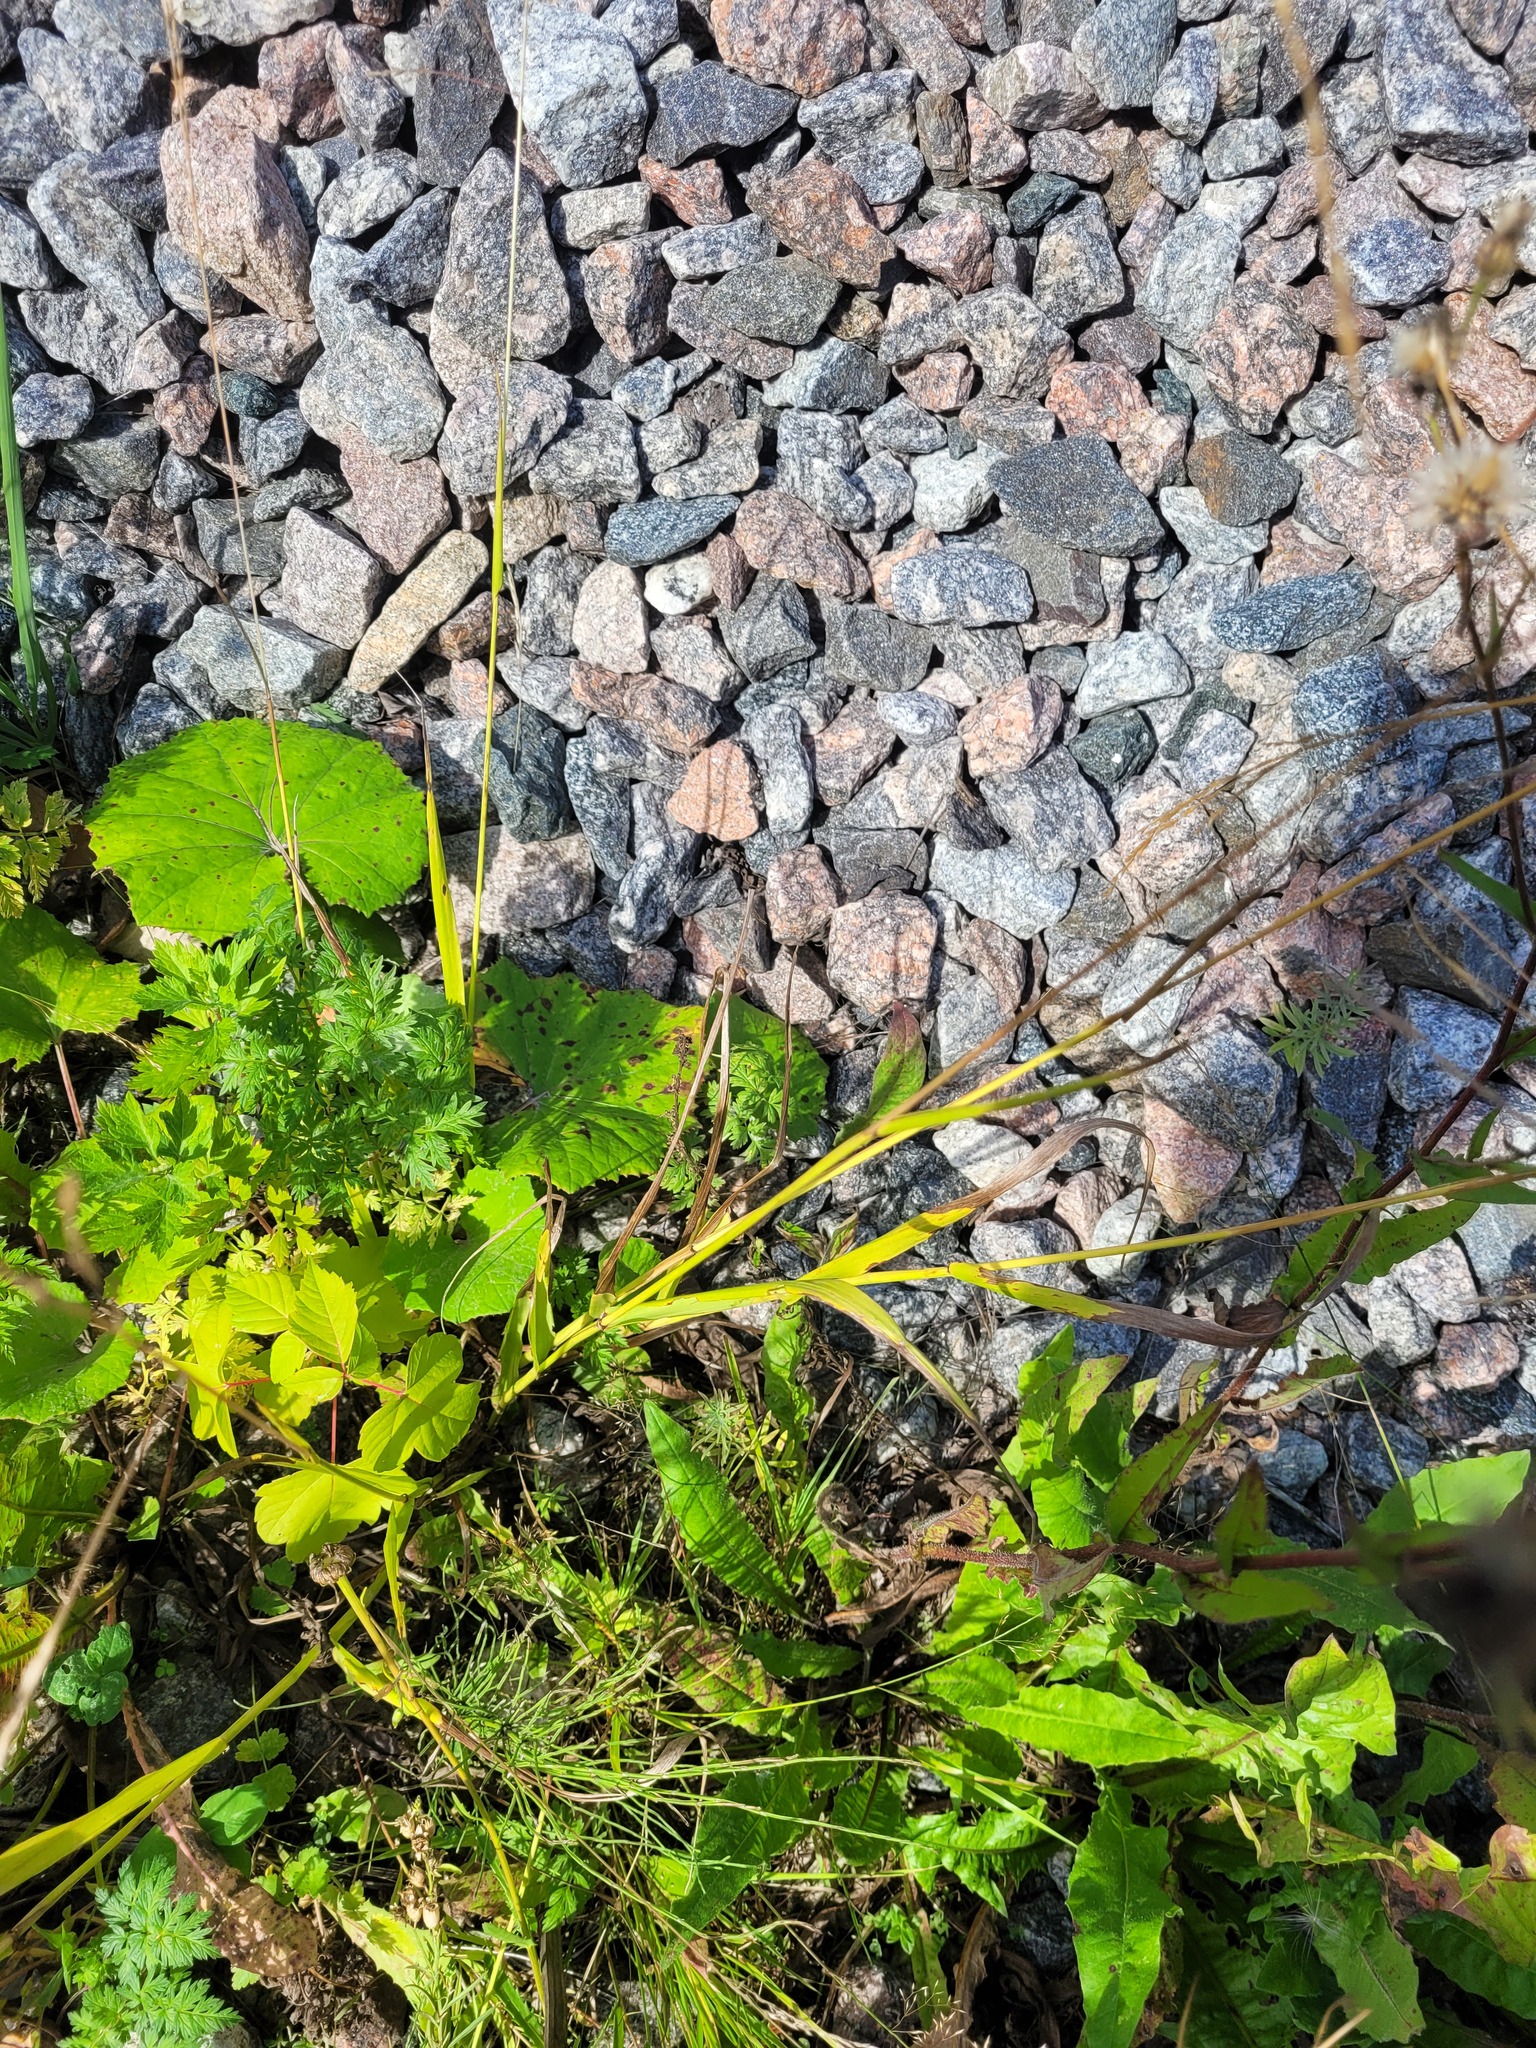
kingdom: Plantae
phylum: Tracheophyta
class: Liliopsida
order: Poales
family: Poaceae
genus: Lolium
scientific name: Lolium giganteum
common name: Giant fescue
